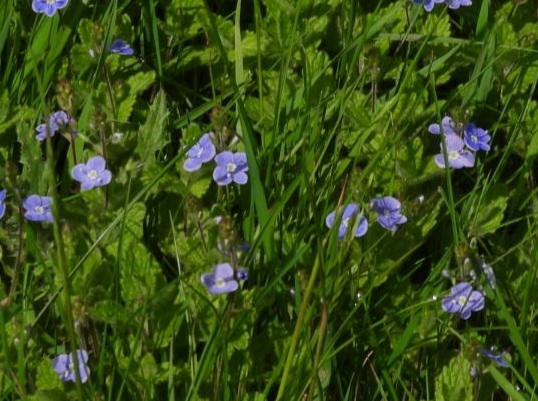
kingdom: Plantae
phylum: Tracheophyta
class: Magnoliopsida
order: Lamiales
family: Plantaginaceae
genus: Veronica
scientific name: Veronica chamaedrys
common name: Germander speedwell
